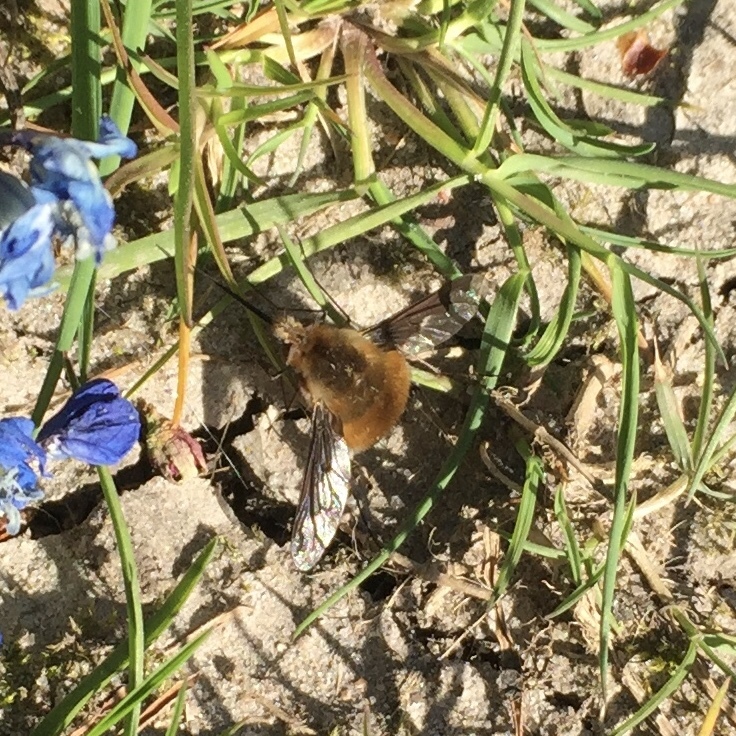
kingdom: Animalia
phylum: Arthropoda
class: Insecta
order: Diptera
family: Bombyliidae
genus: Bombylius
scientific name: Bombylius major
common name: Bee fly
